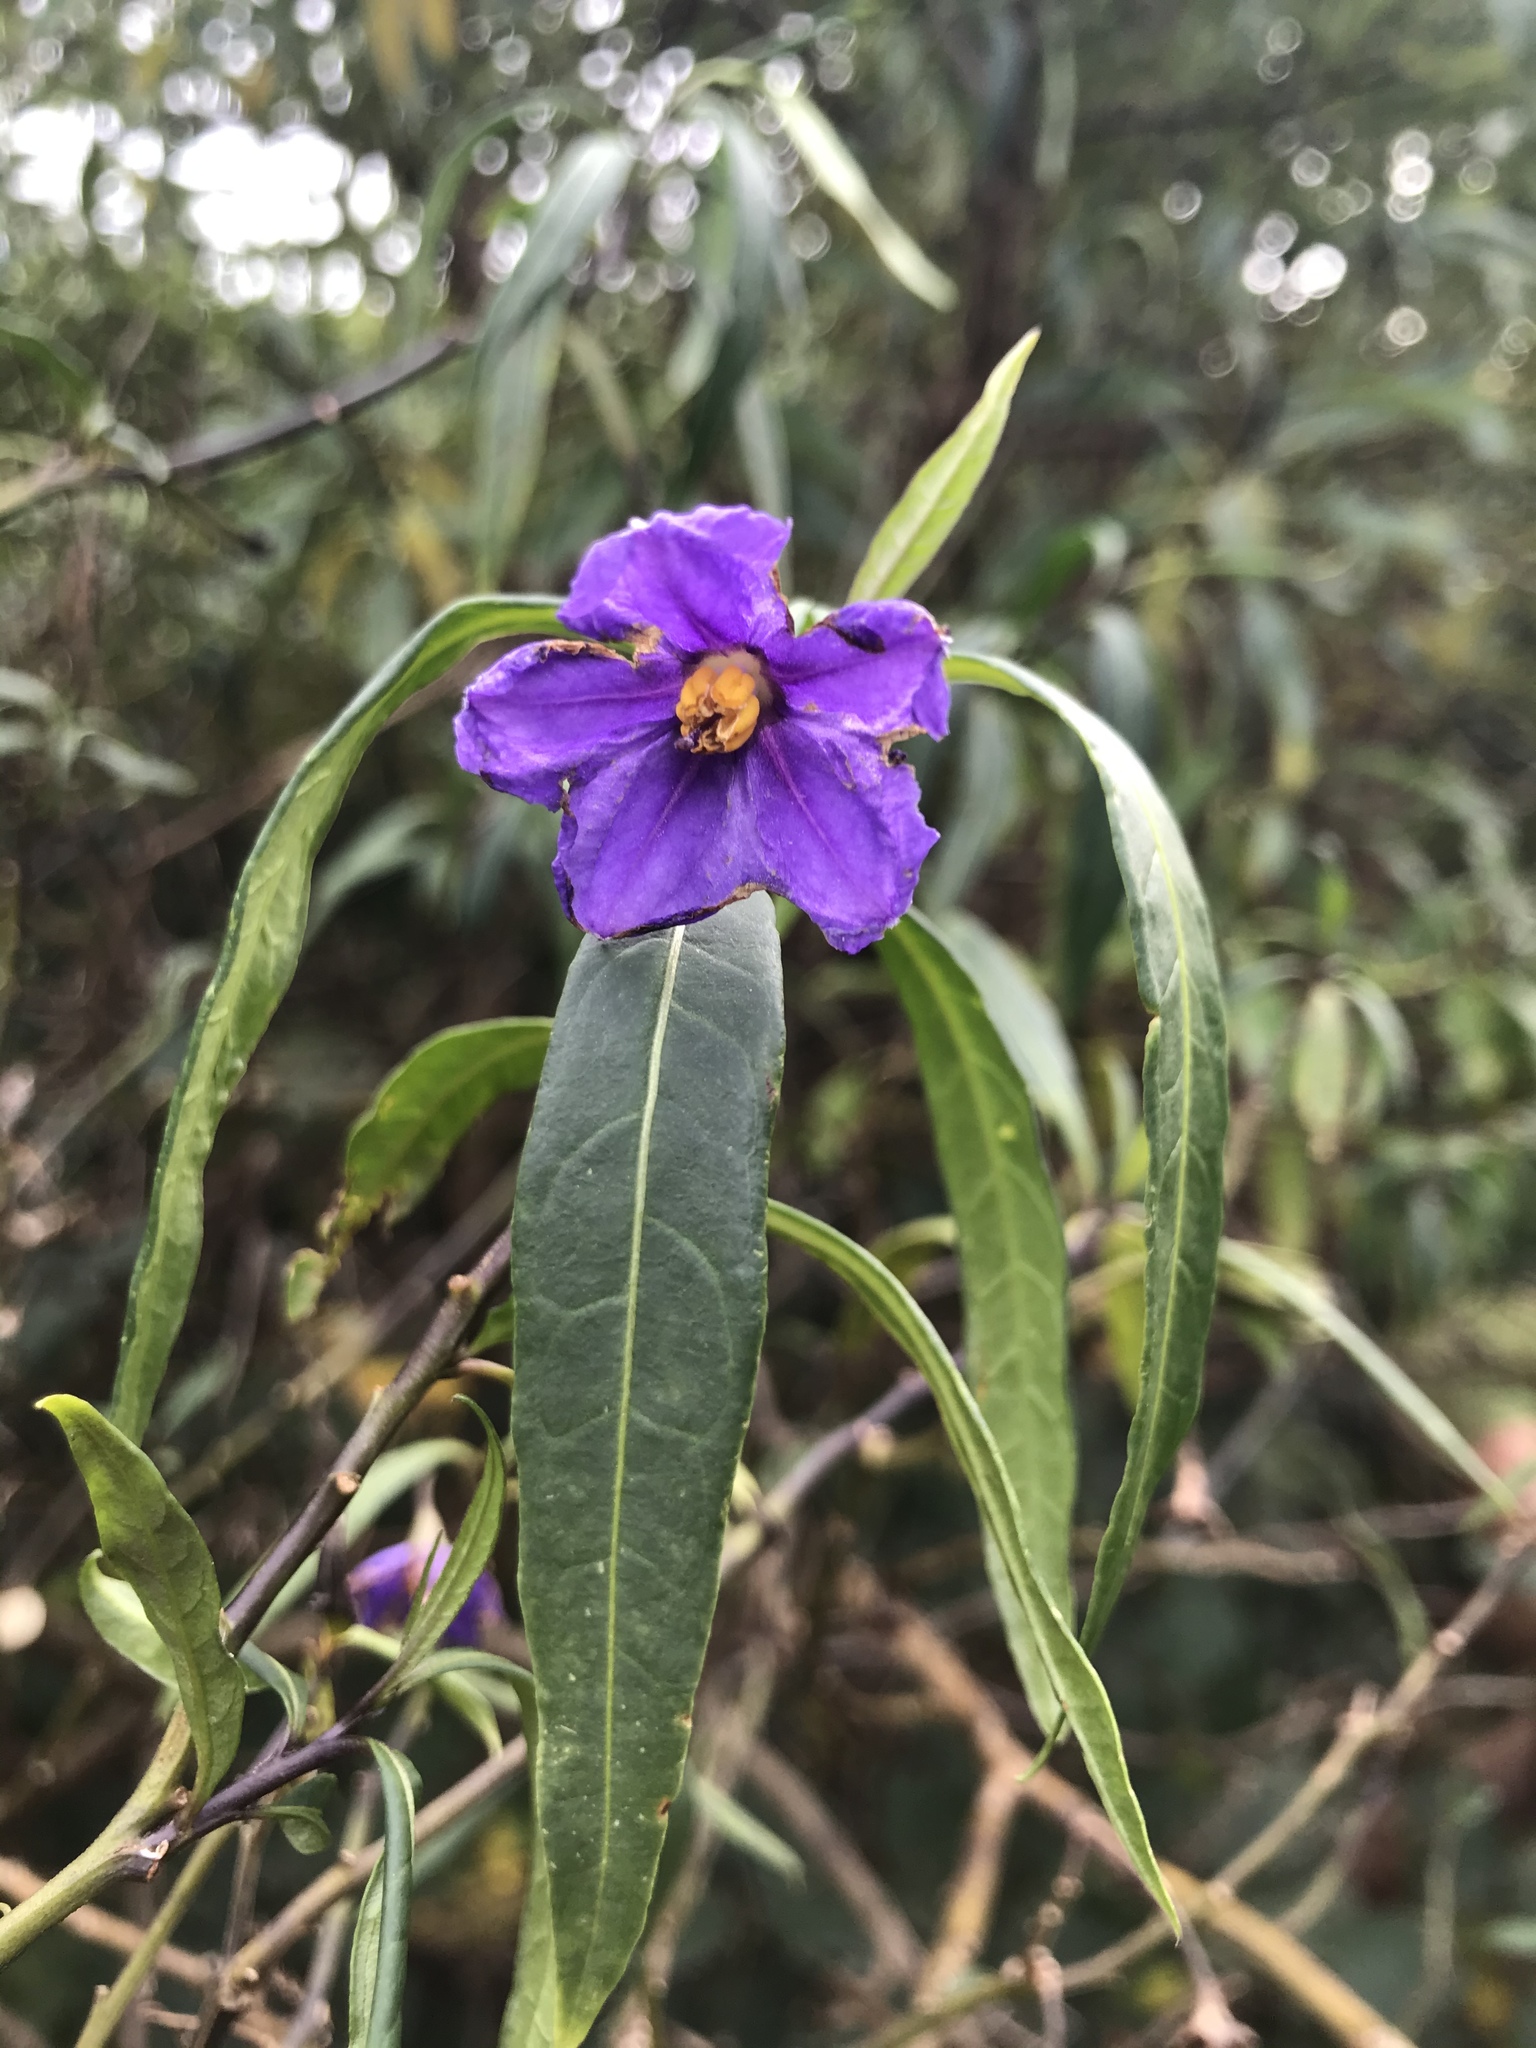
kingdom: Plantae
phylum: Tracheophyta
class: Magnoliopsida
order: Solanales
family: Solanaceae
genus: Solanum
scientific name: Solanum laciniatum
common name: Kangaroo-apple
